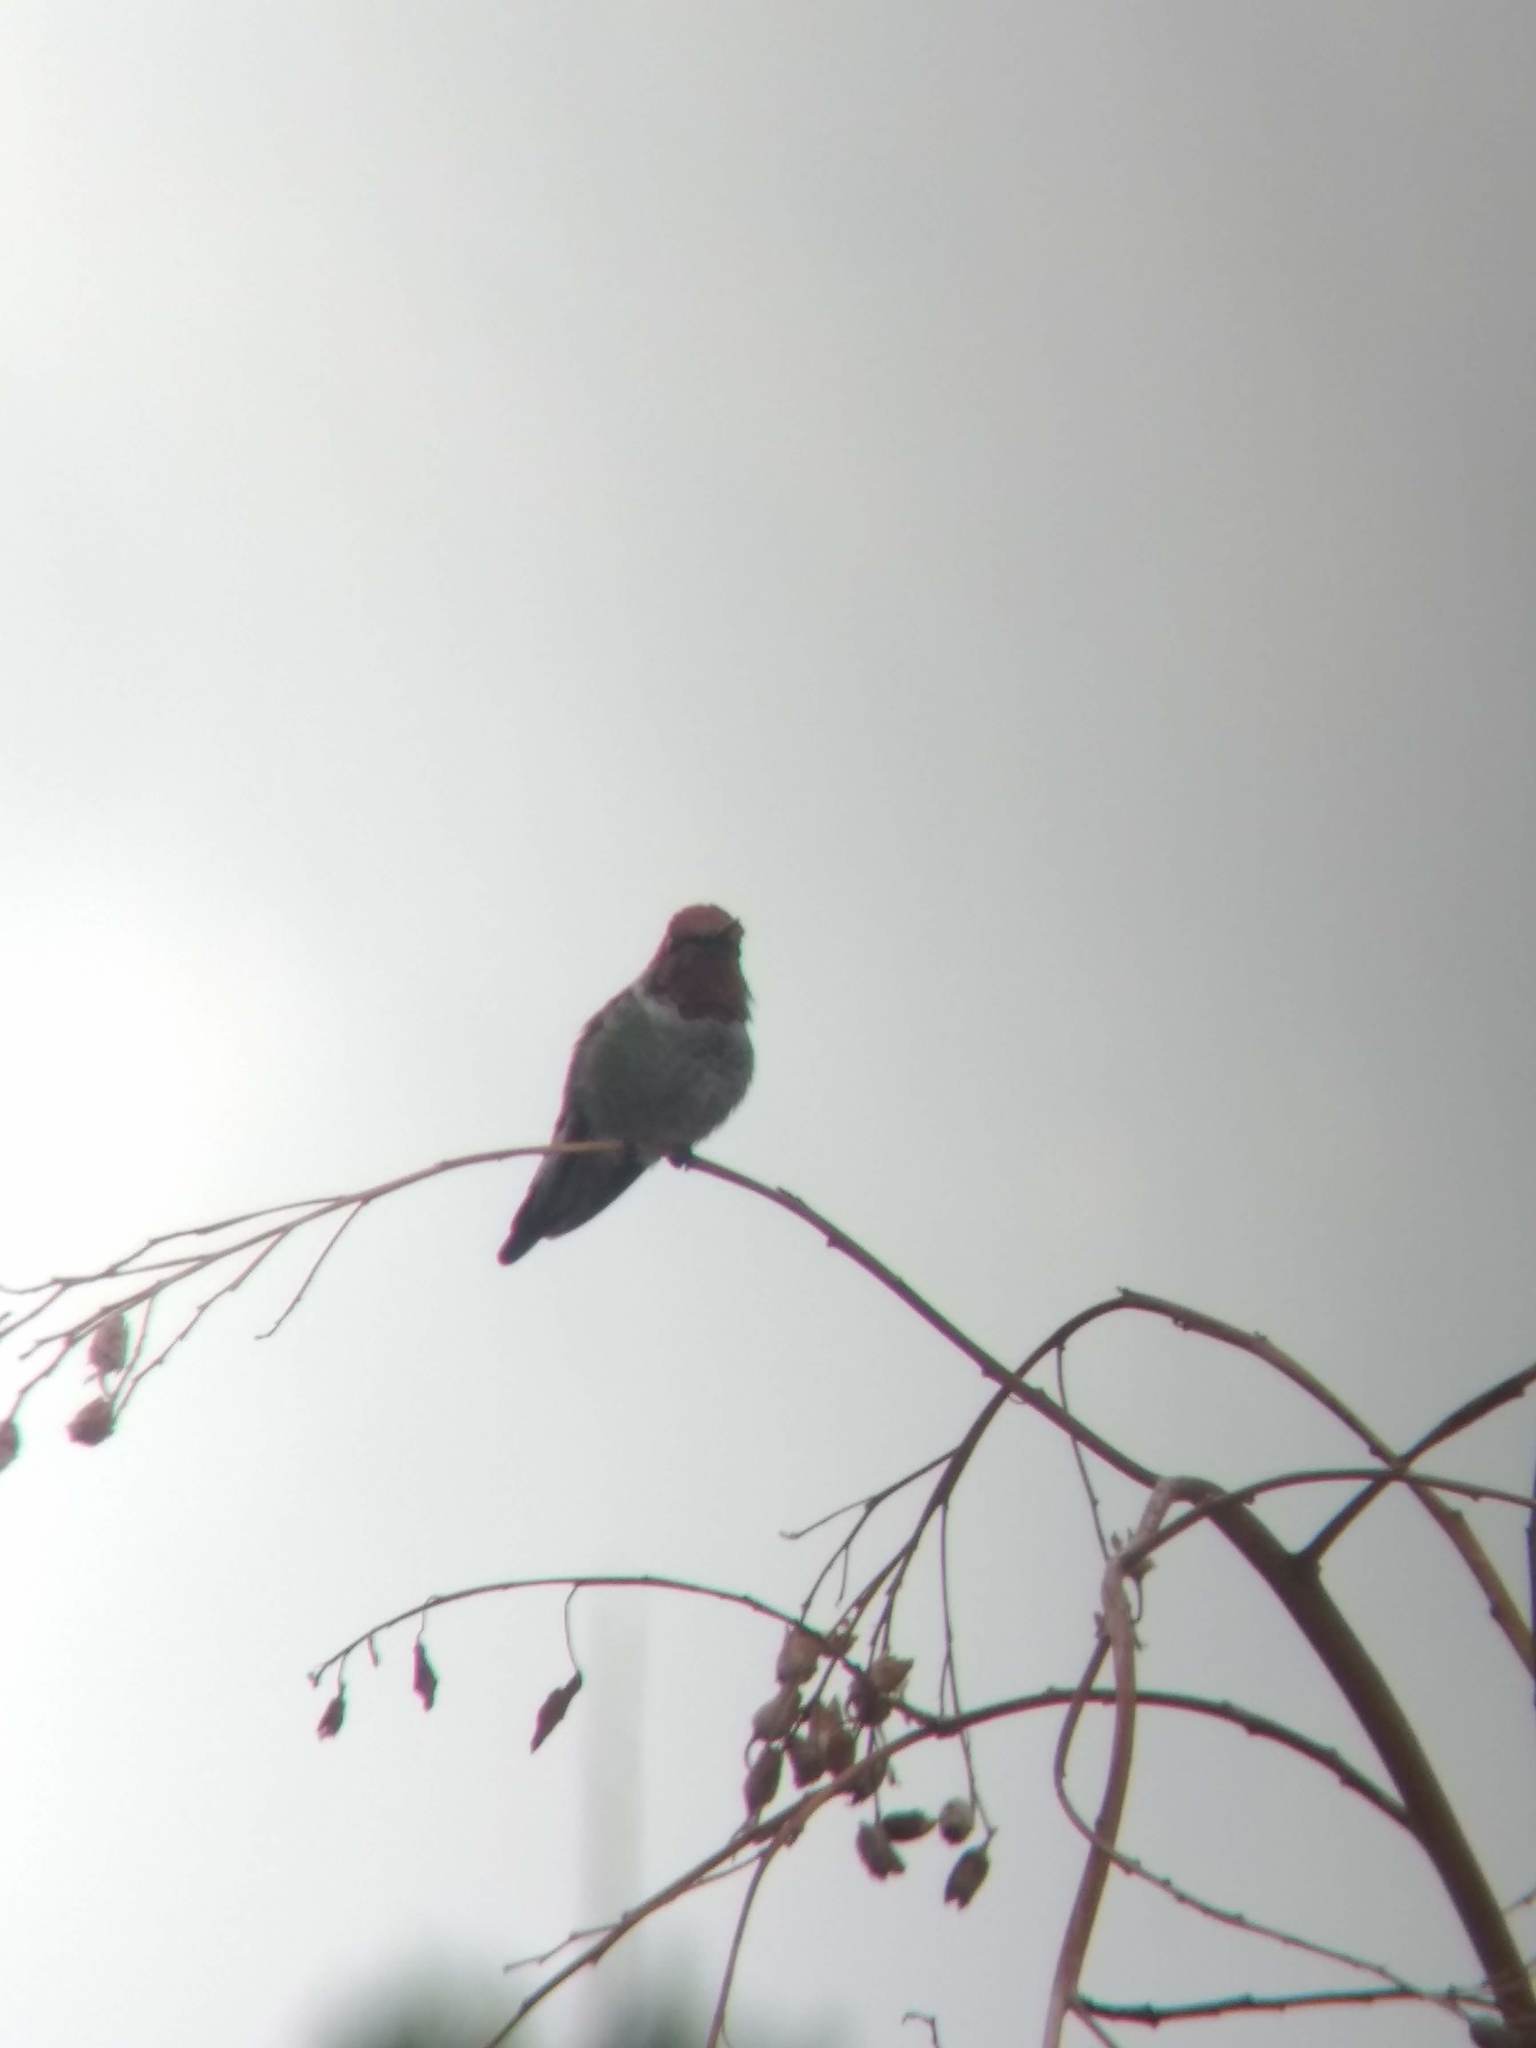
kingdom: Animalia
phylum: Chordata
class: Aves
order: Apodiformes
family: Trochilidae
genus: Calypte
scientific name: Calypte anna
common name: Anna's hummingbird
